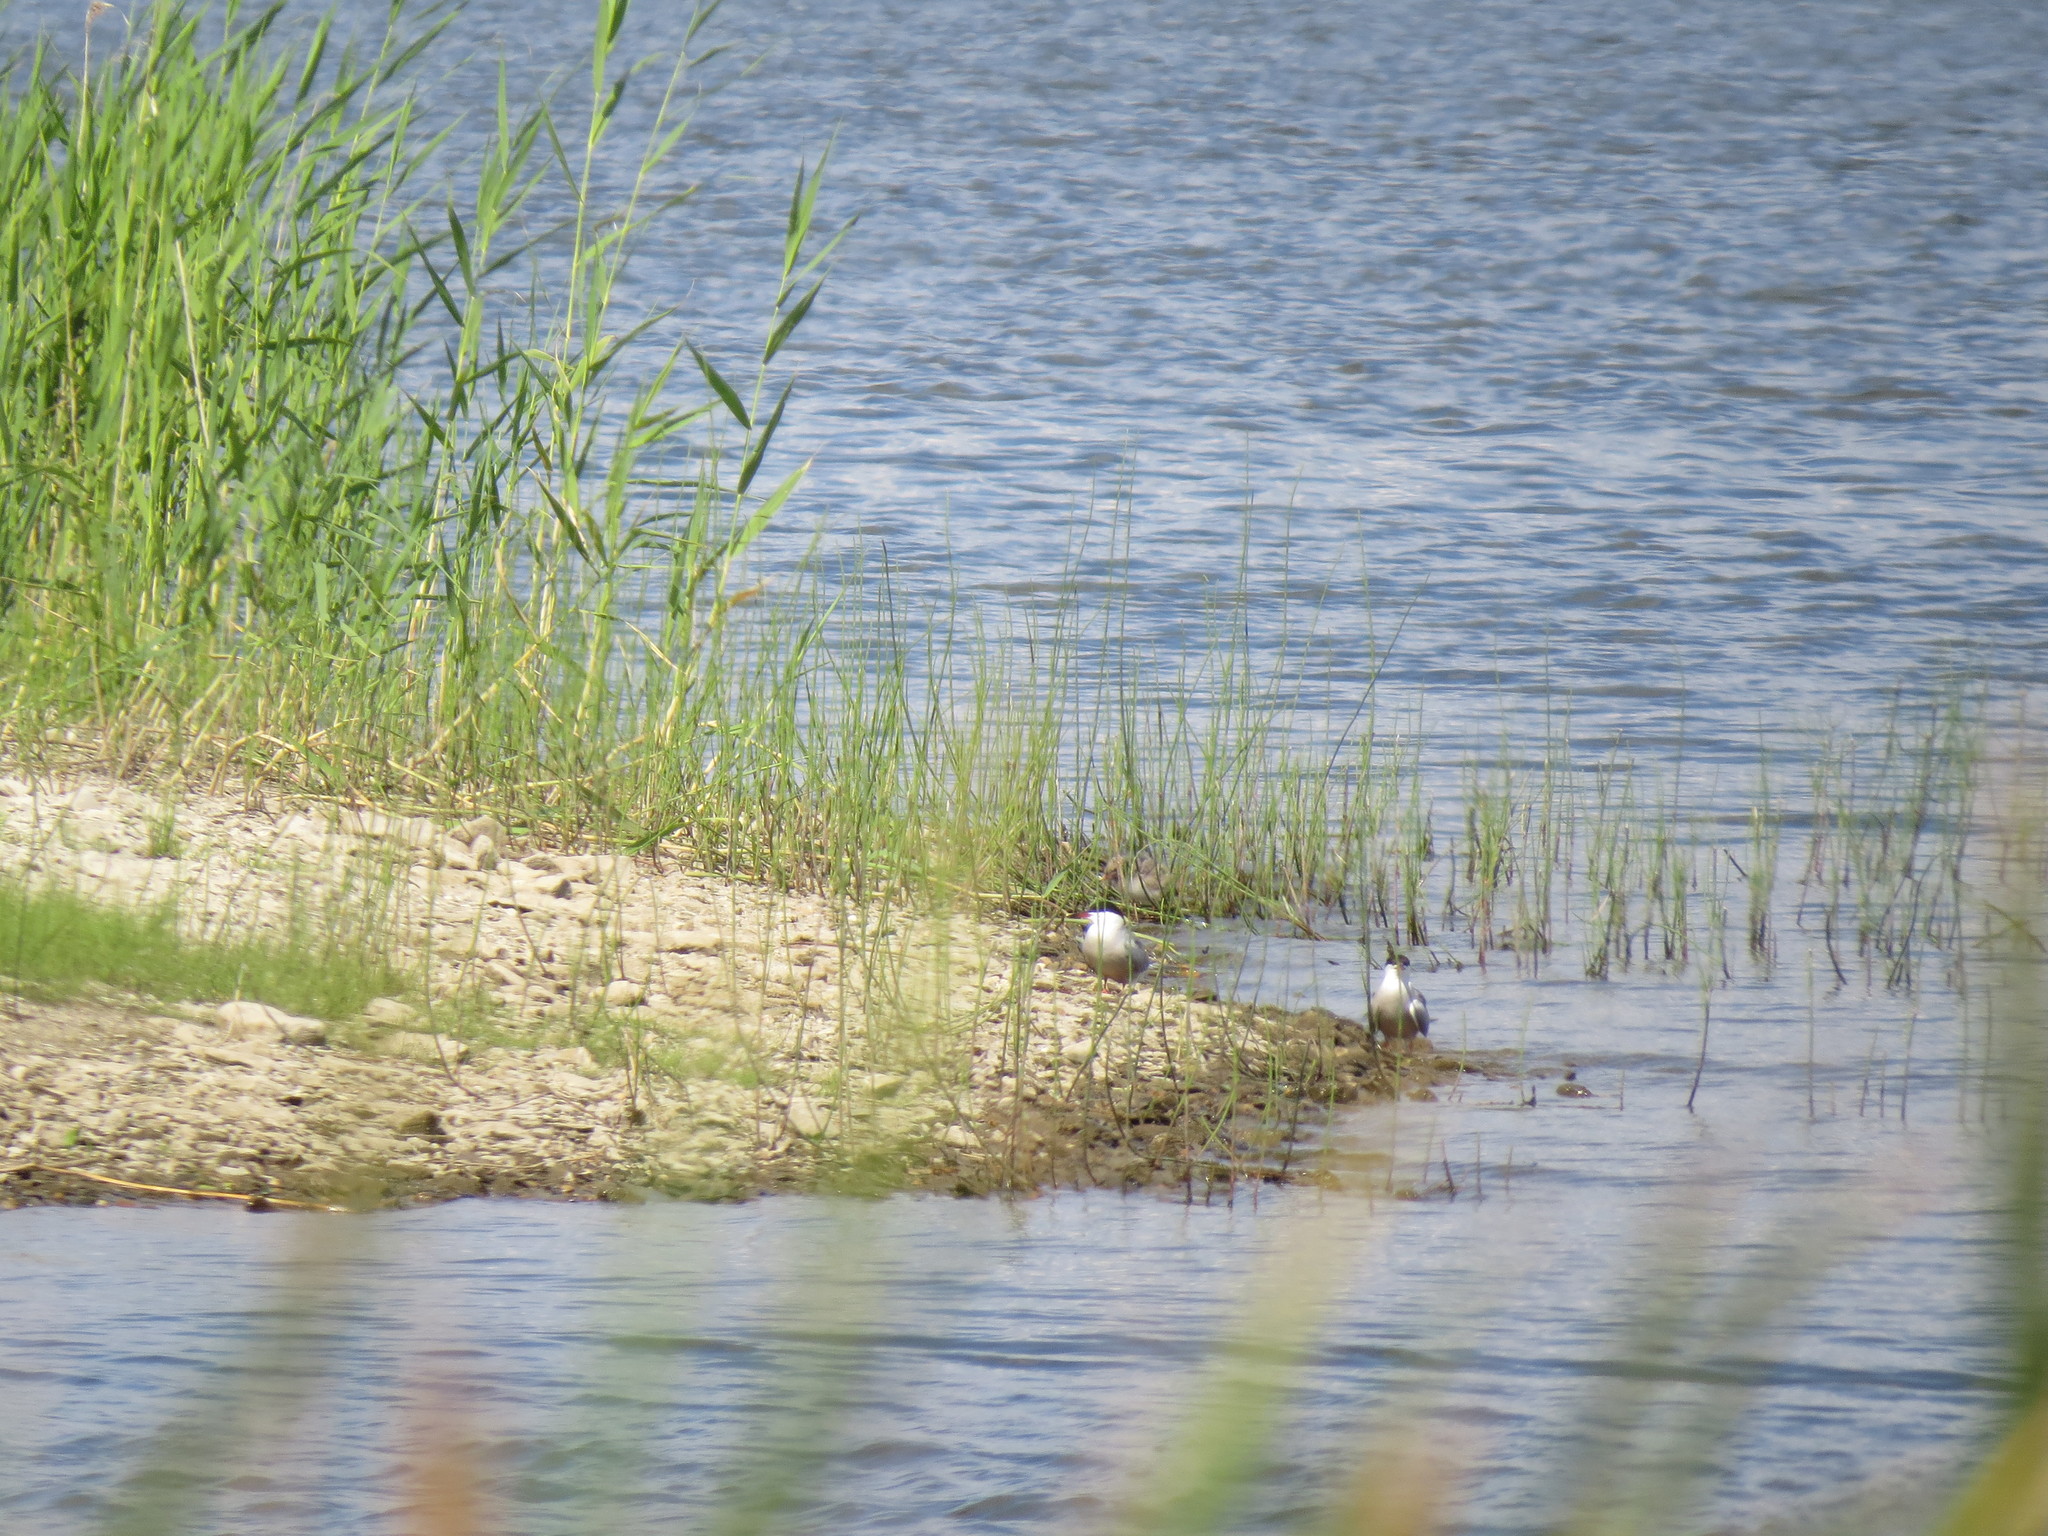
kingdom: Animalia
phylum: Chordata
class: Aves
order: Charadriiformes
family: Laridae
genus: Sterna
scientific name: Sterna hirundo
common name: Common tern
